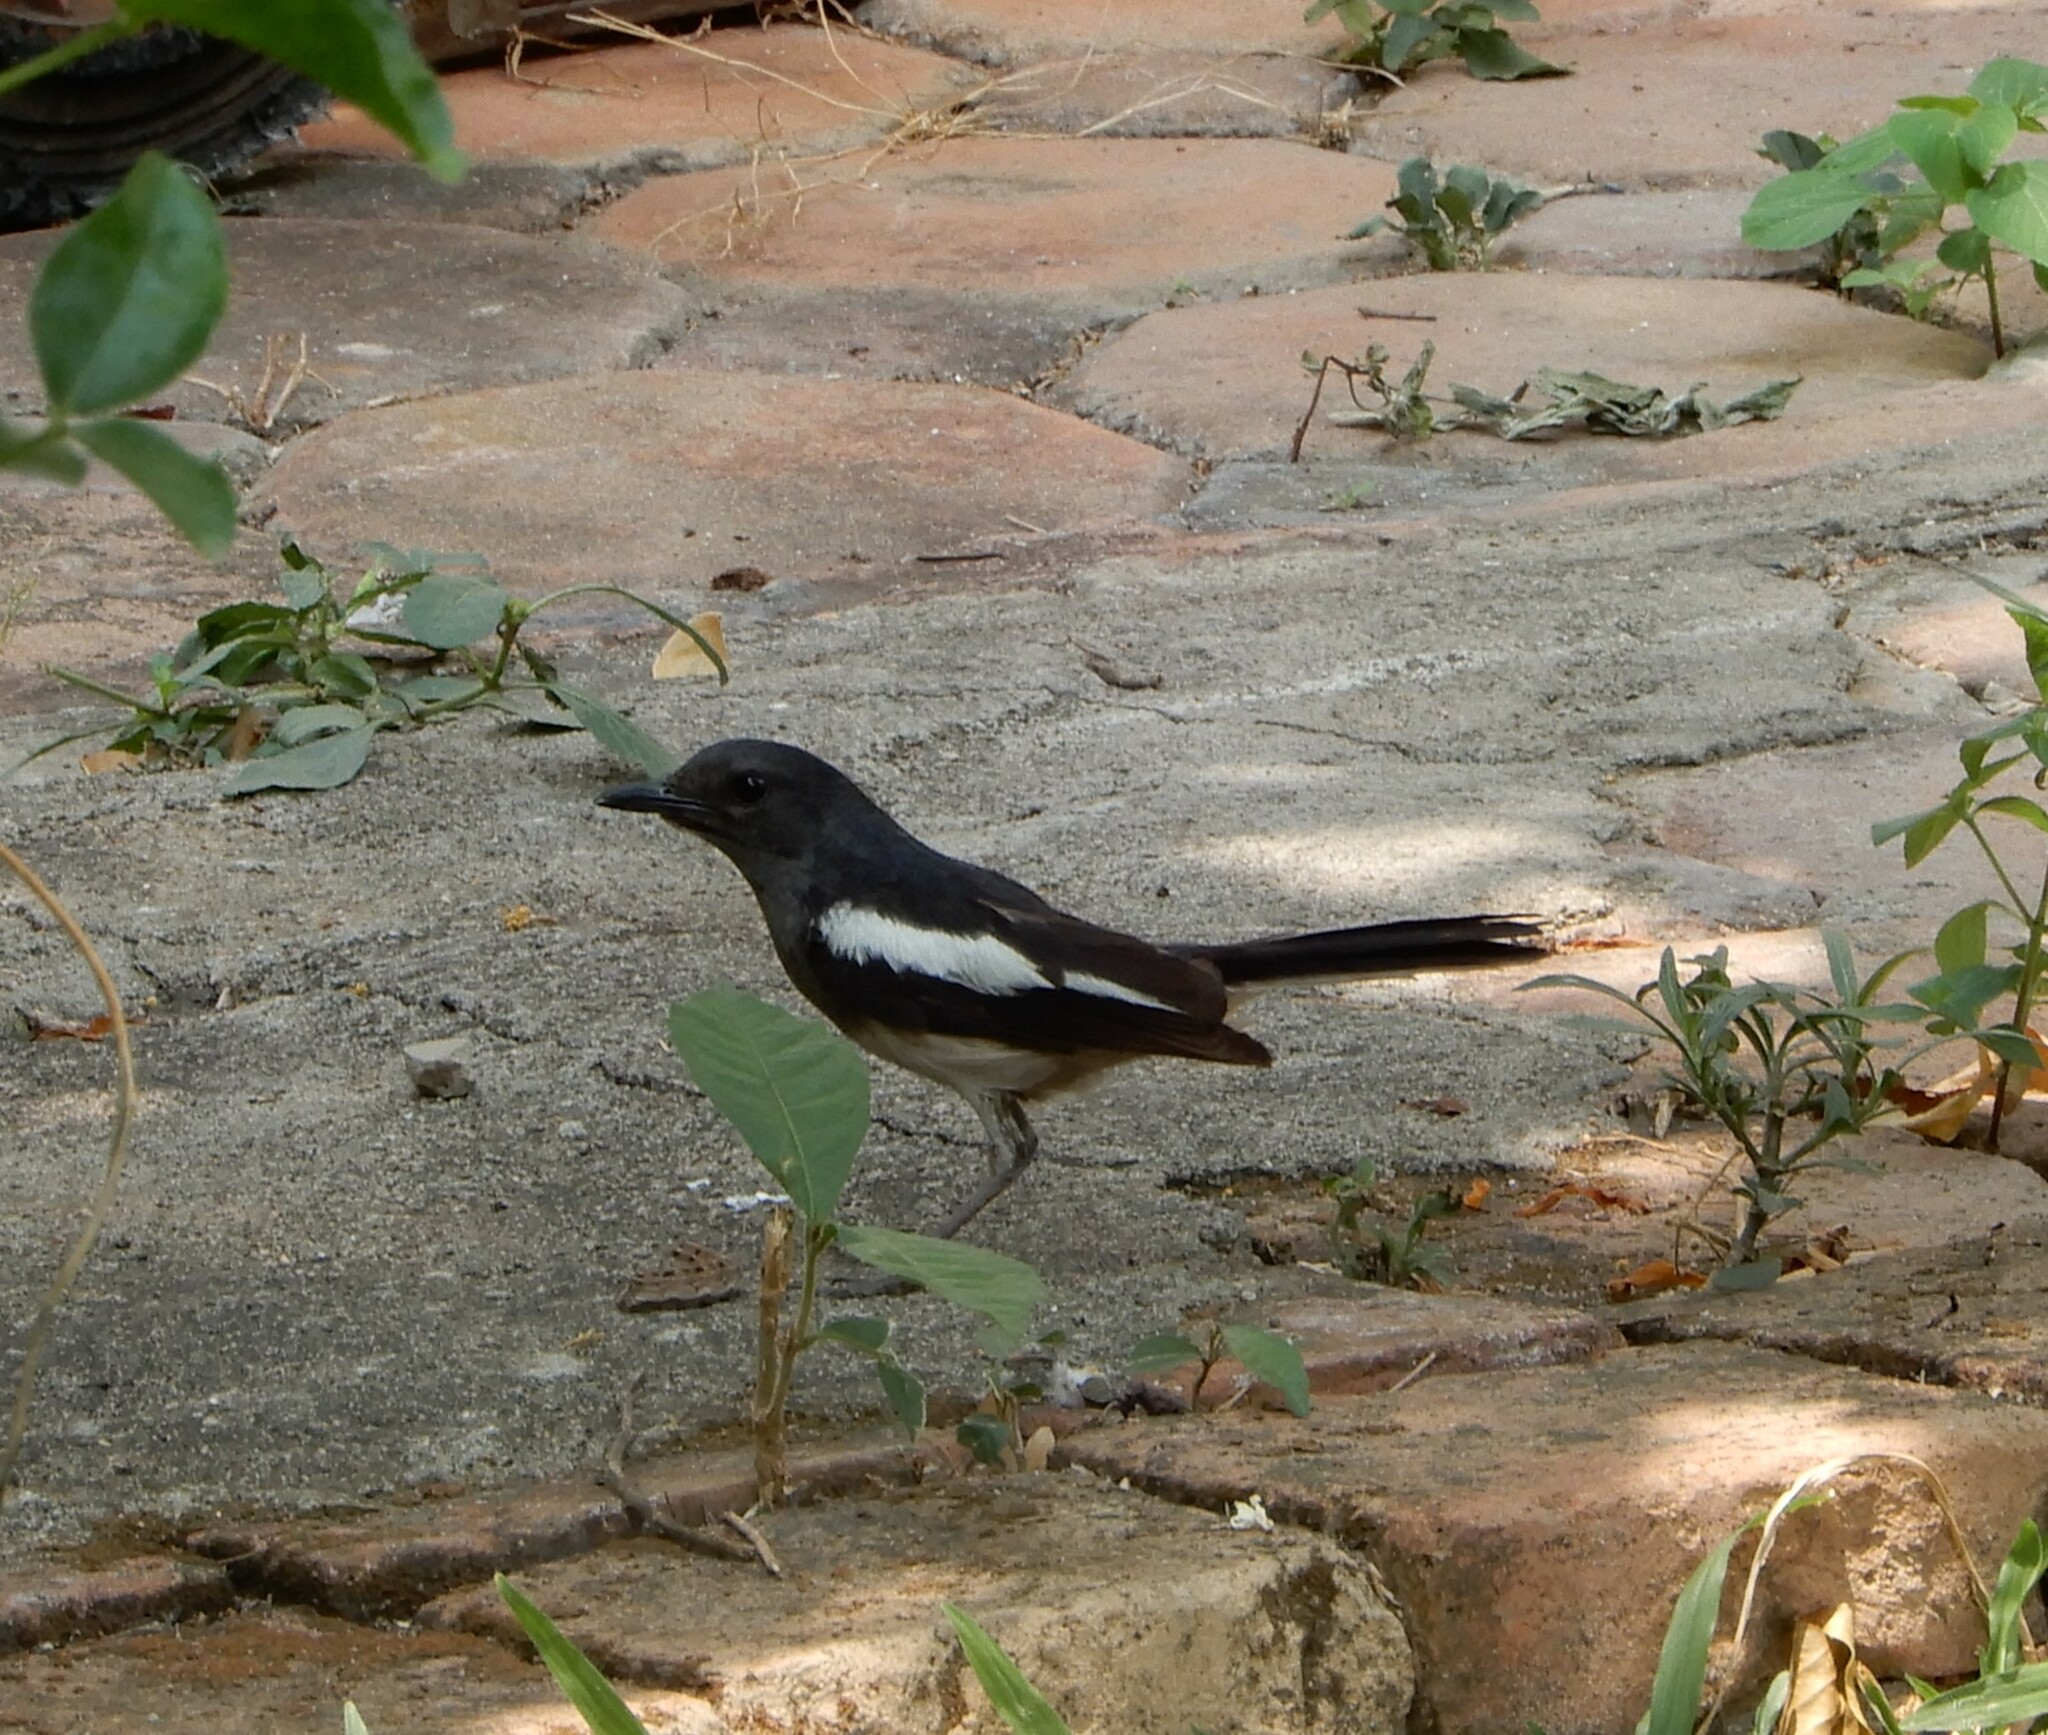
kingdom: Animalia
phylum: Chordata
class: Aves
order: Passeriformes
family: Muscicapidae
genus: Copsychus
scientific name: Copsychus saularis
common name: Oriental magpie-robin
